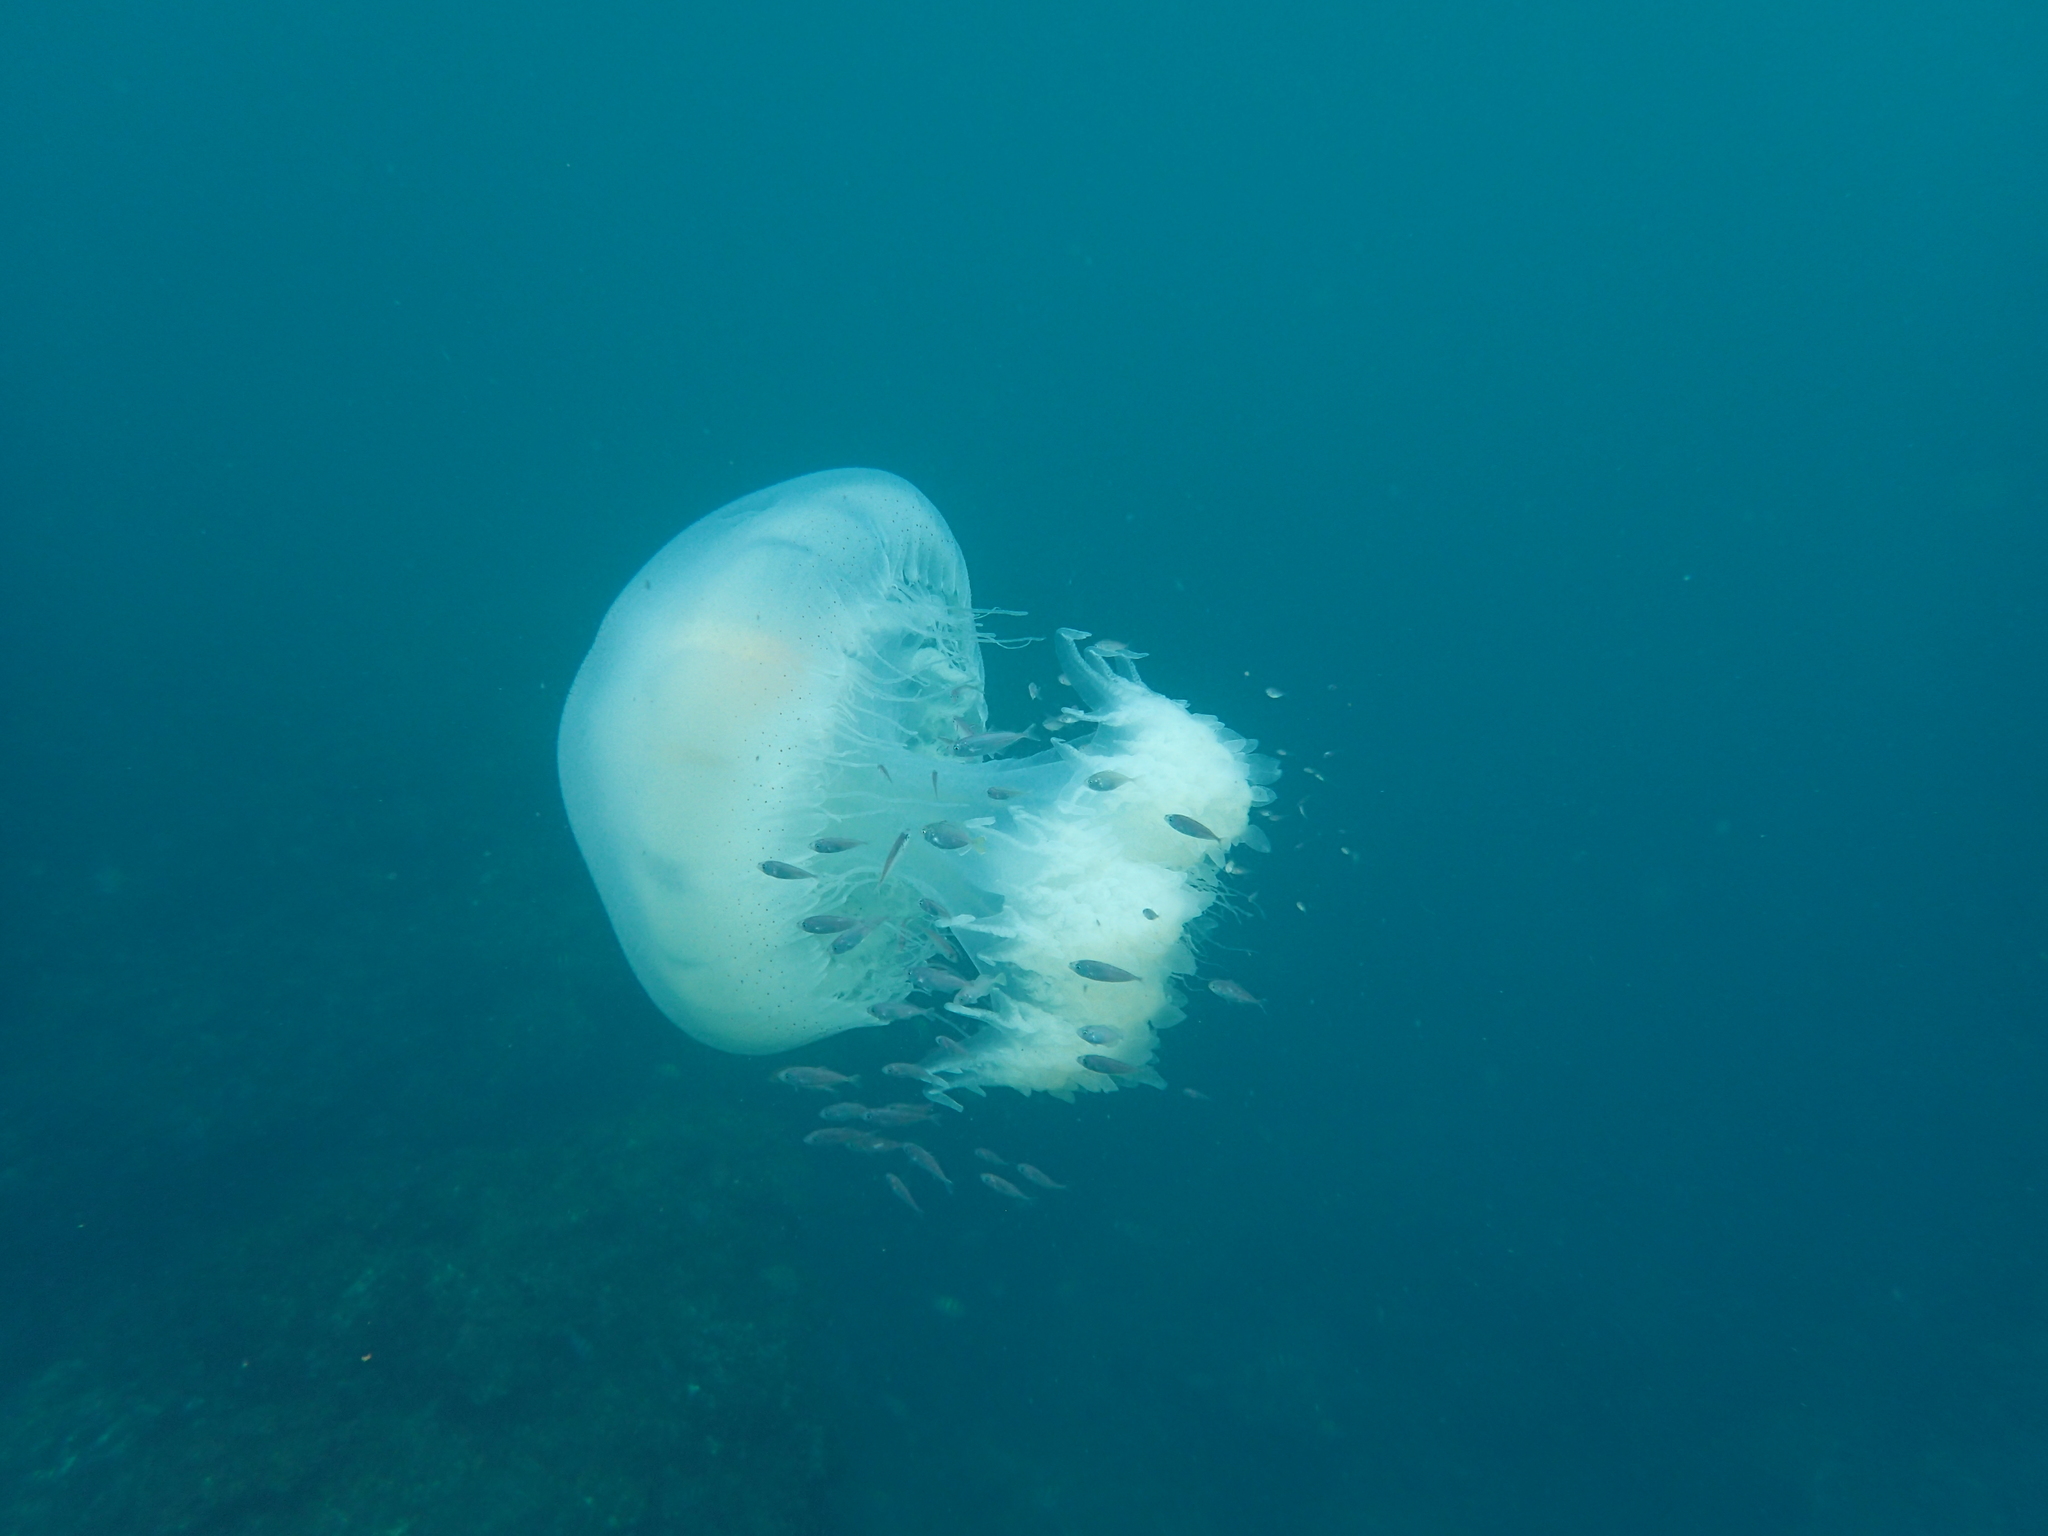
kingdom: Animalia
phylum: Cnidaria
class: Scyphozoa
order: Rhizostomeae
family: Rhizostomatidae
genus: Rhopilema
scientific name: Rhopilema hispidum
